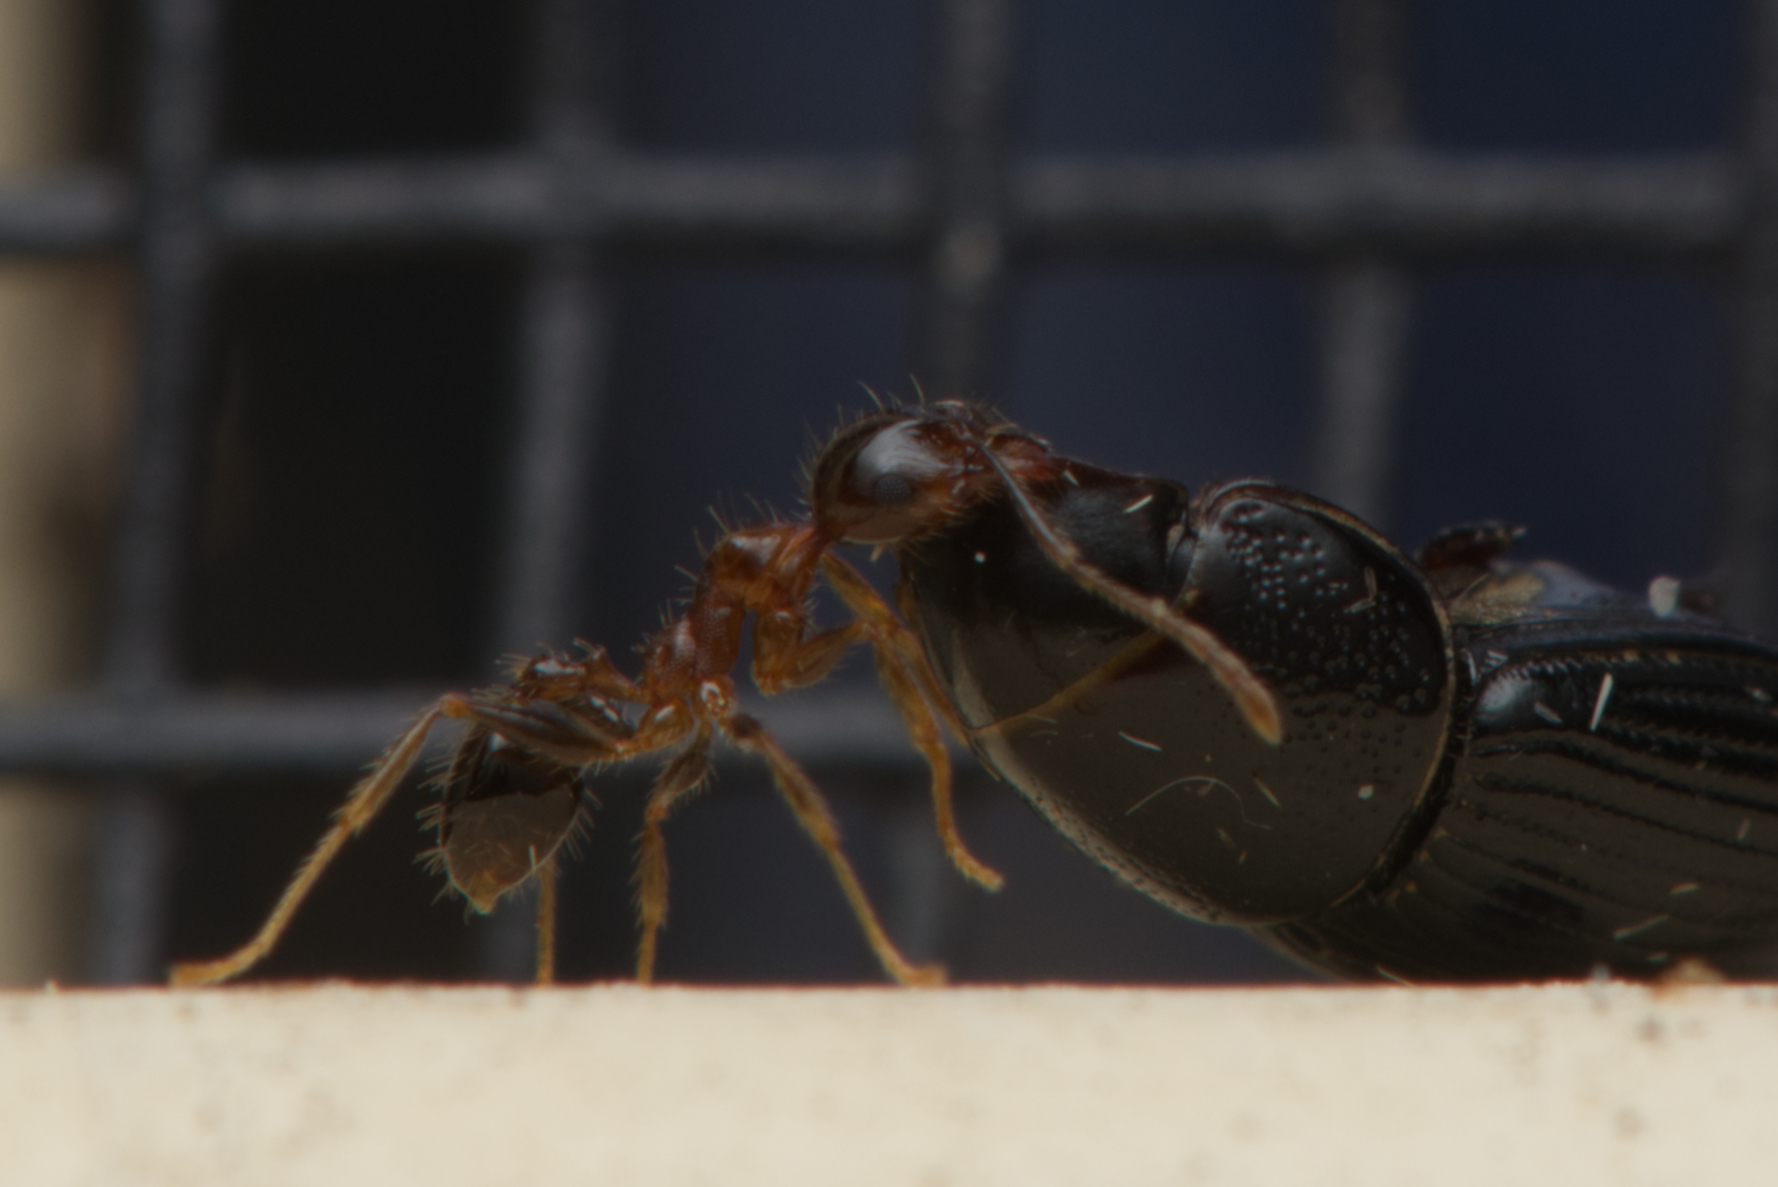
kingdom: Animalia
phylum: Arthropoda
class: Insecta
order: Hymenoptera
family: Formicidae
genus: Pheidole
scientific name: Pheidole megacephala
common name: Bigheaded ant
